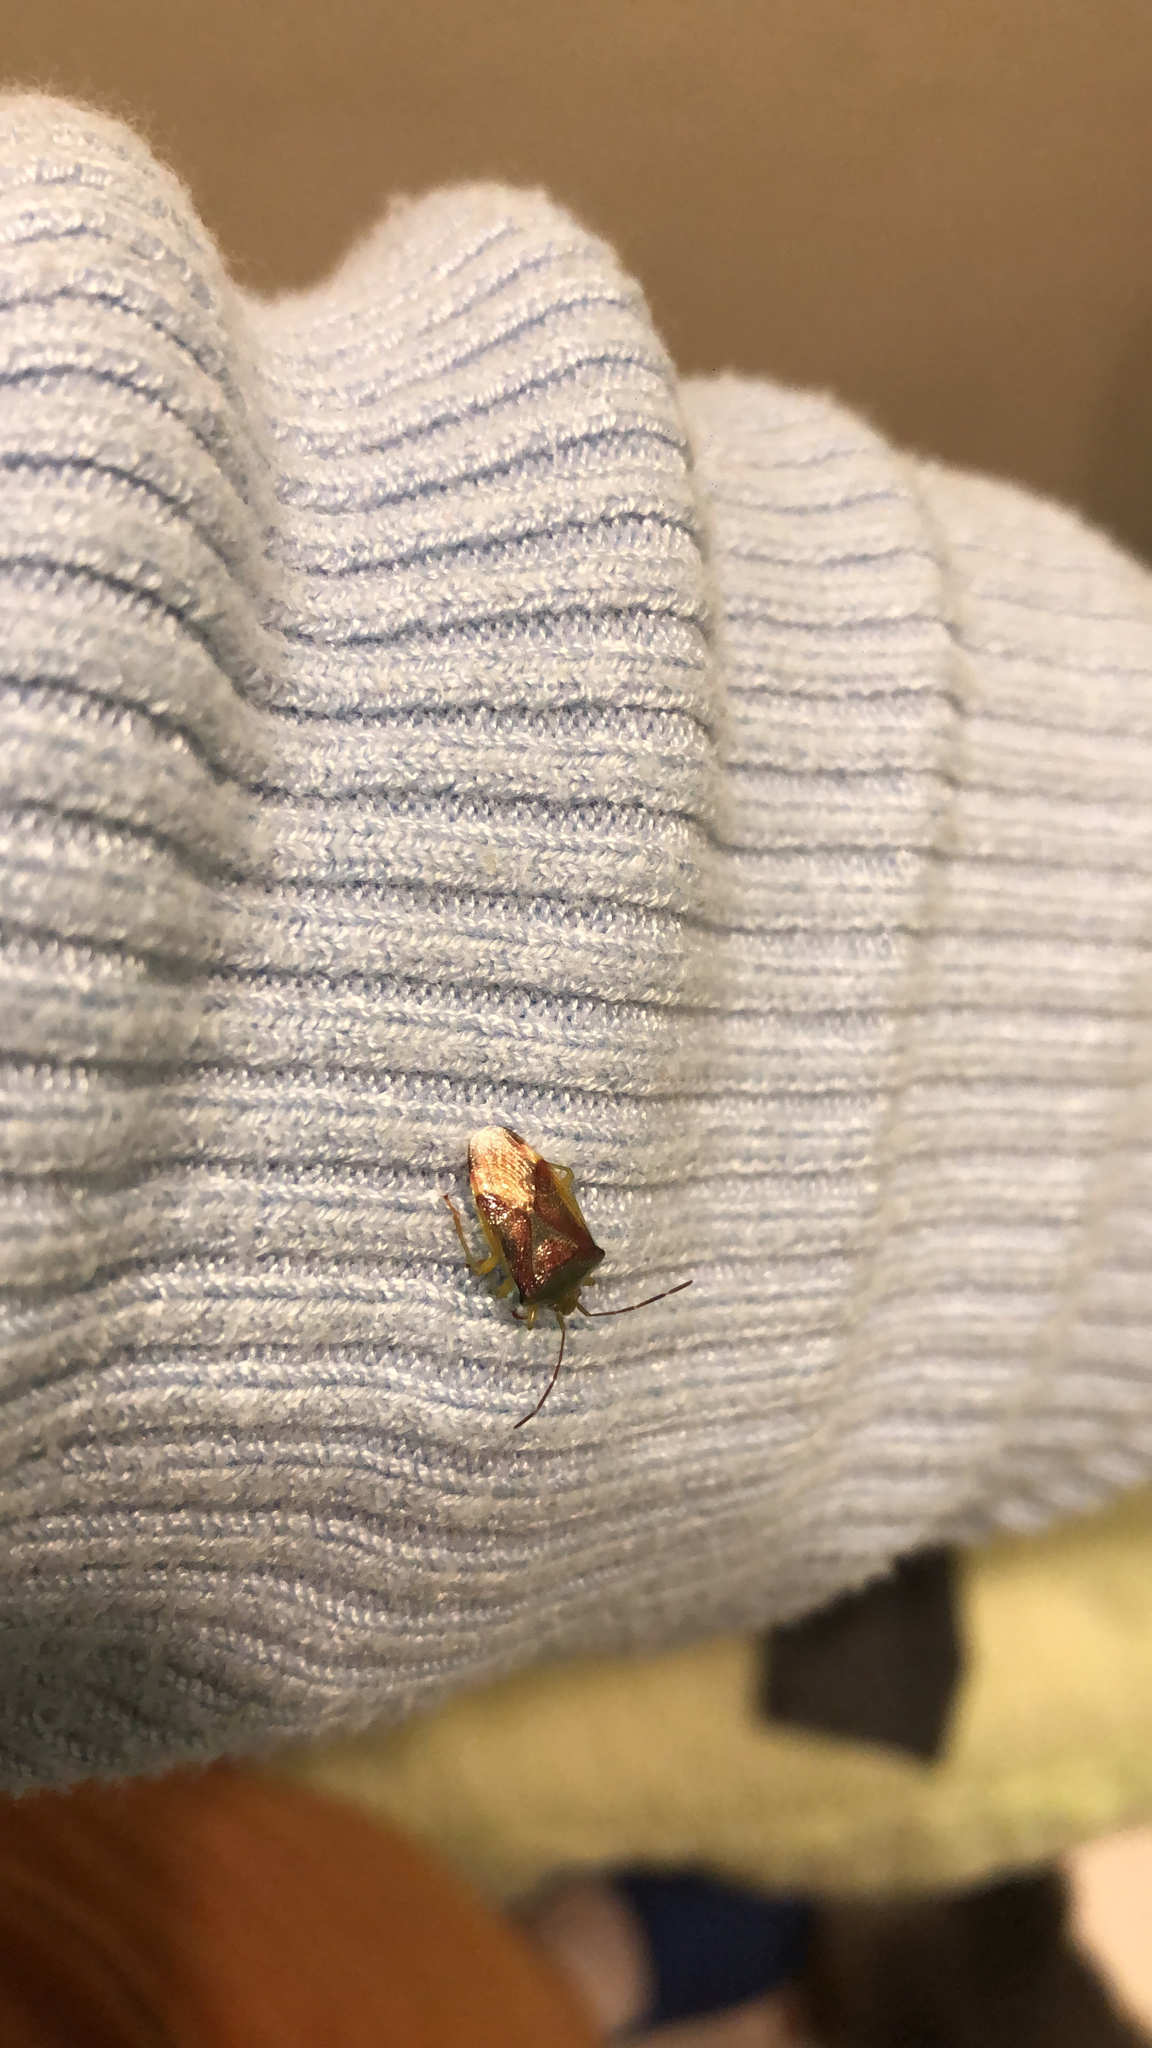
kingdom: Animalia
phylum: Arthropoda
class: Insecta
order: Hemiptera
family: Acanthosomatidae
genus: Elasmostethus
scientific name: Elasmostethus
